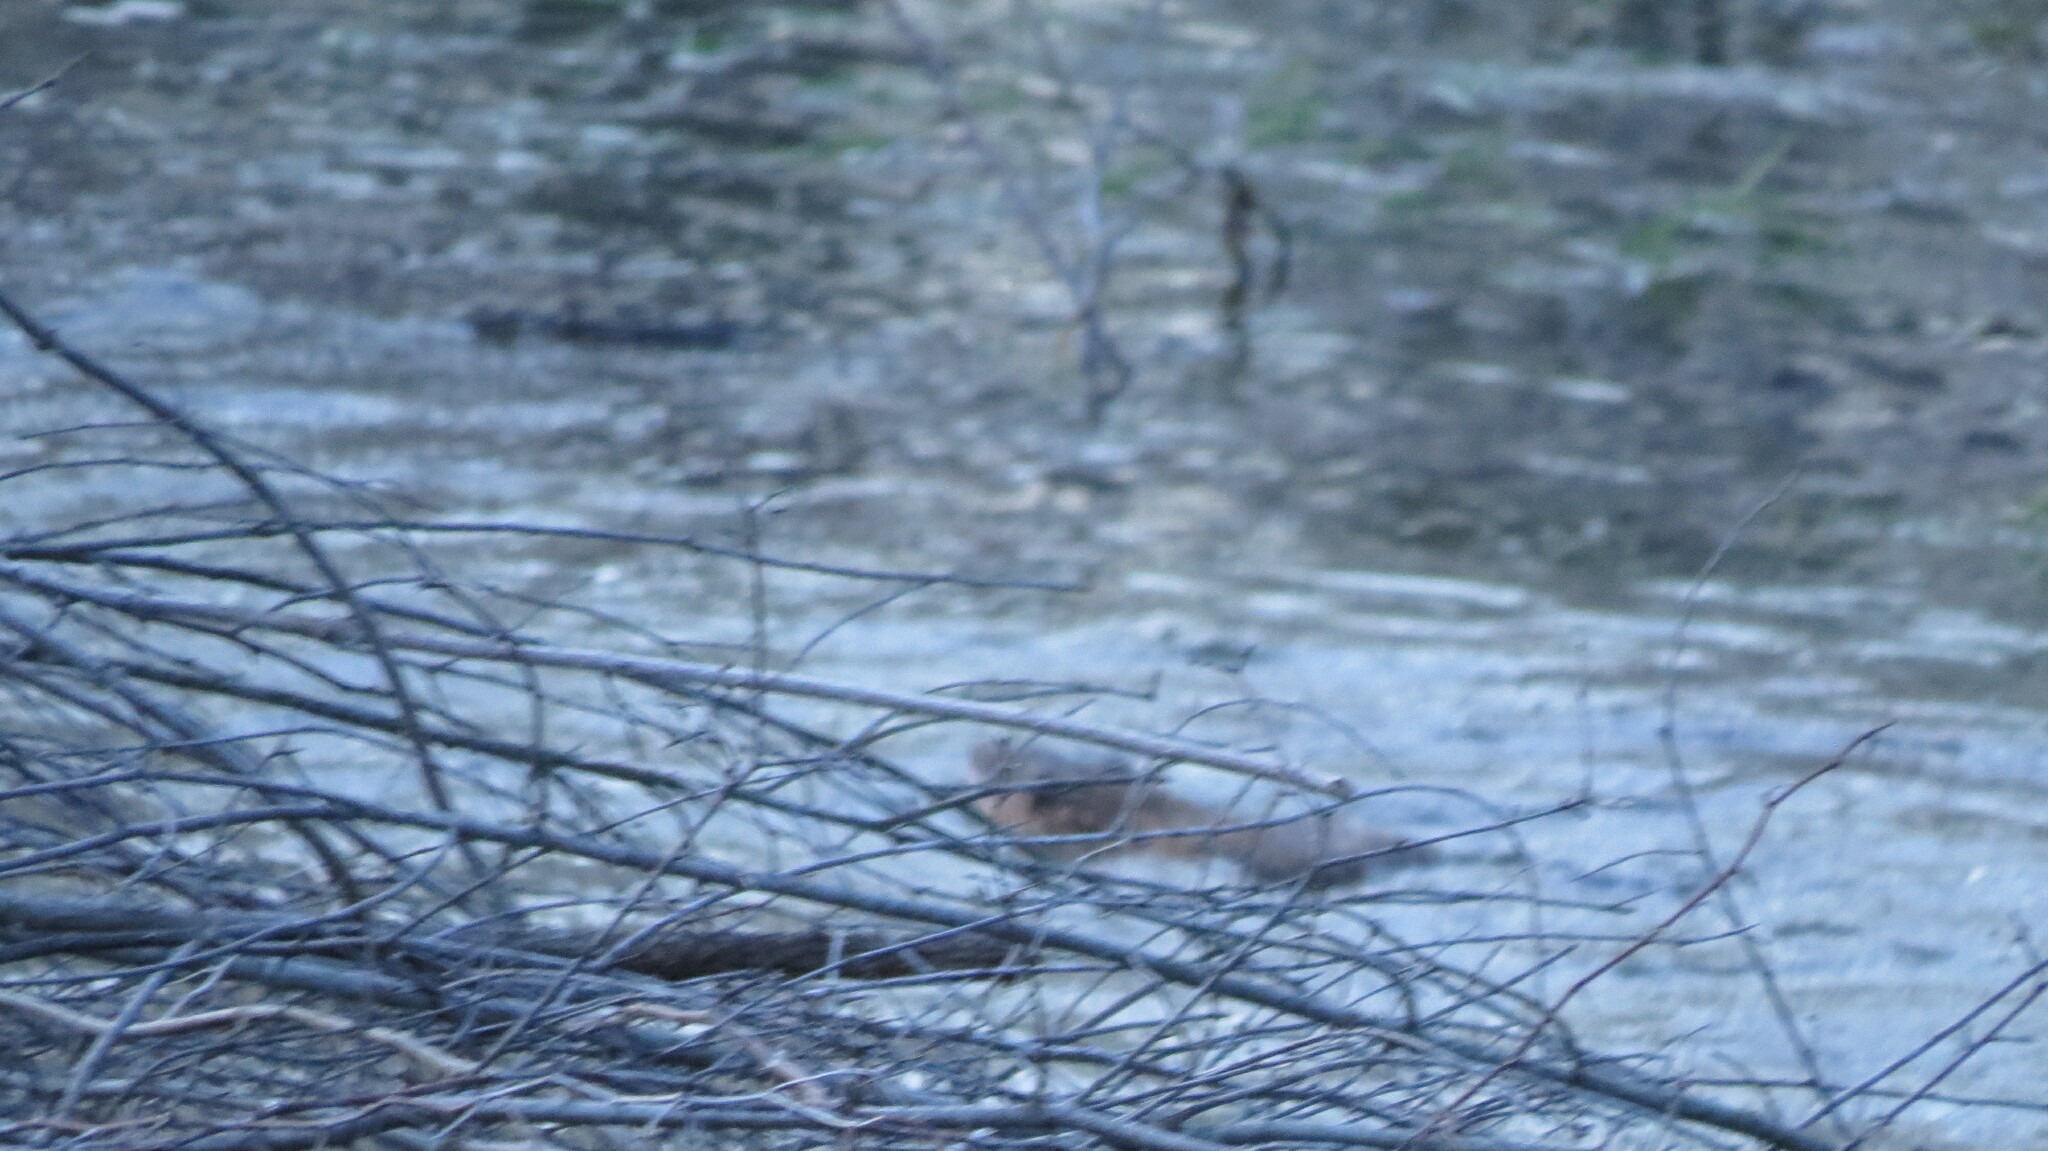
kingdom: Animalia
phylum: Chordata
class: Mammalia
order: Rodentia
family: Cricetidae
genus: Ondatra
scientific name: Ondatra zibethicus
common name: Muskrat
